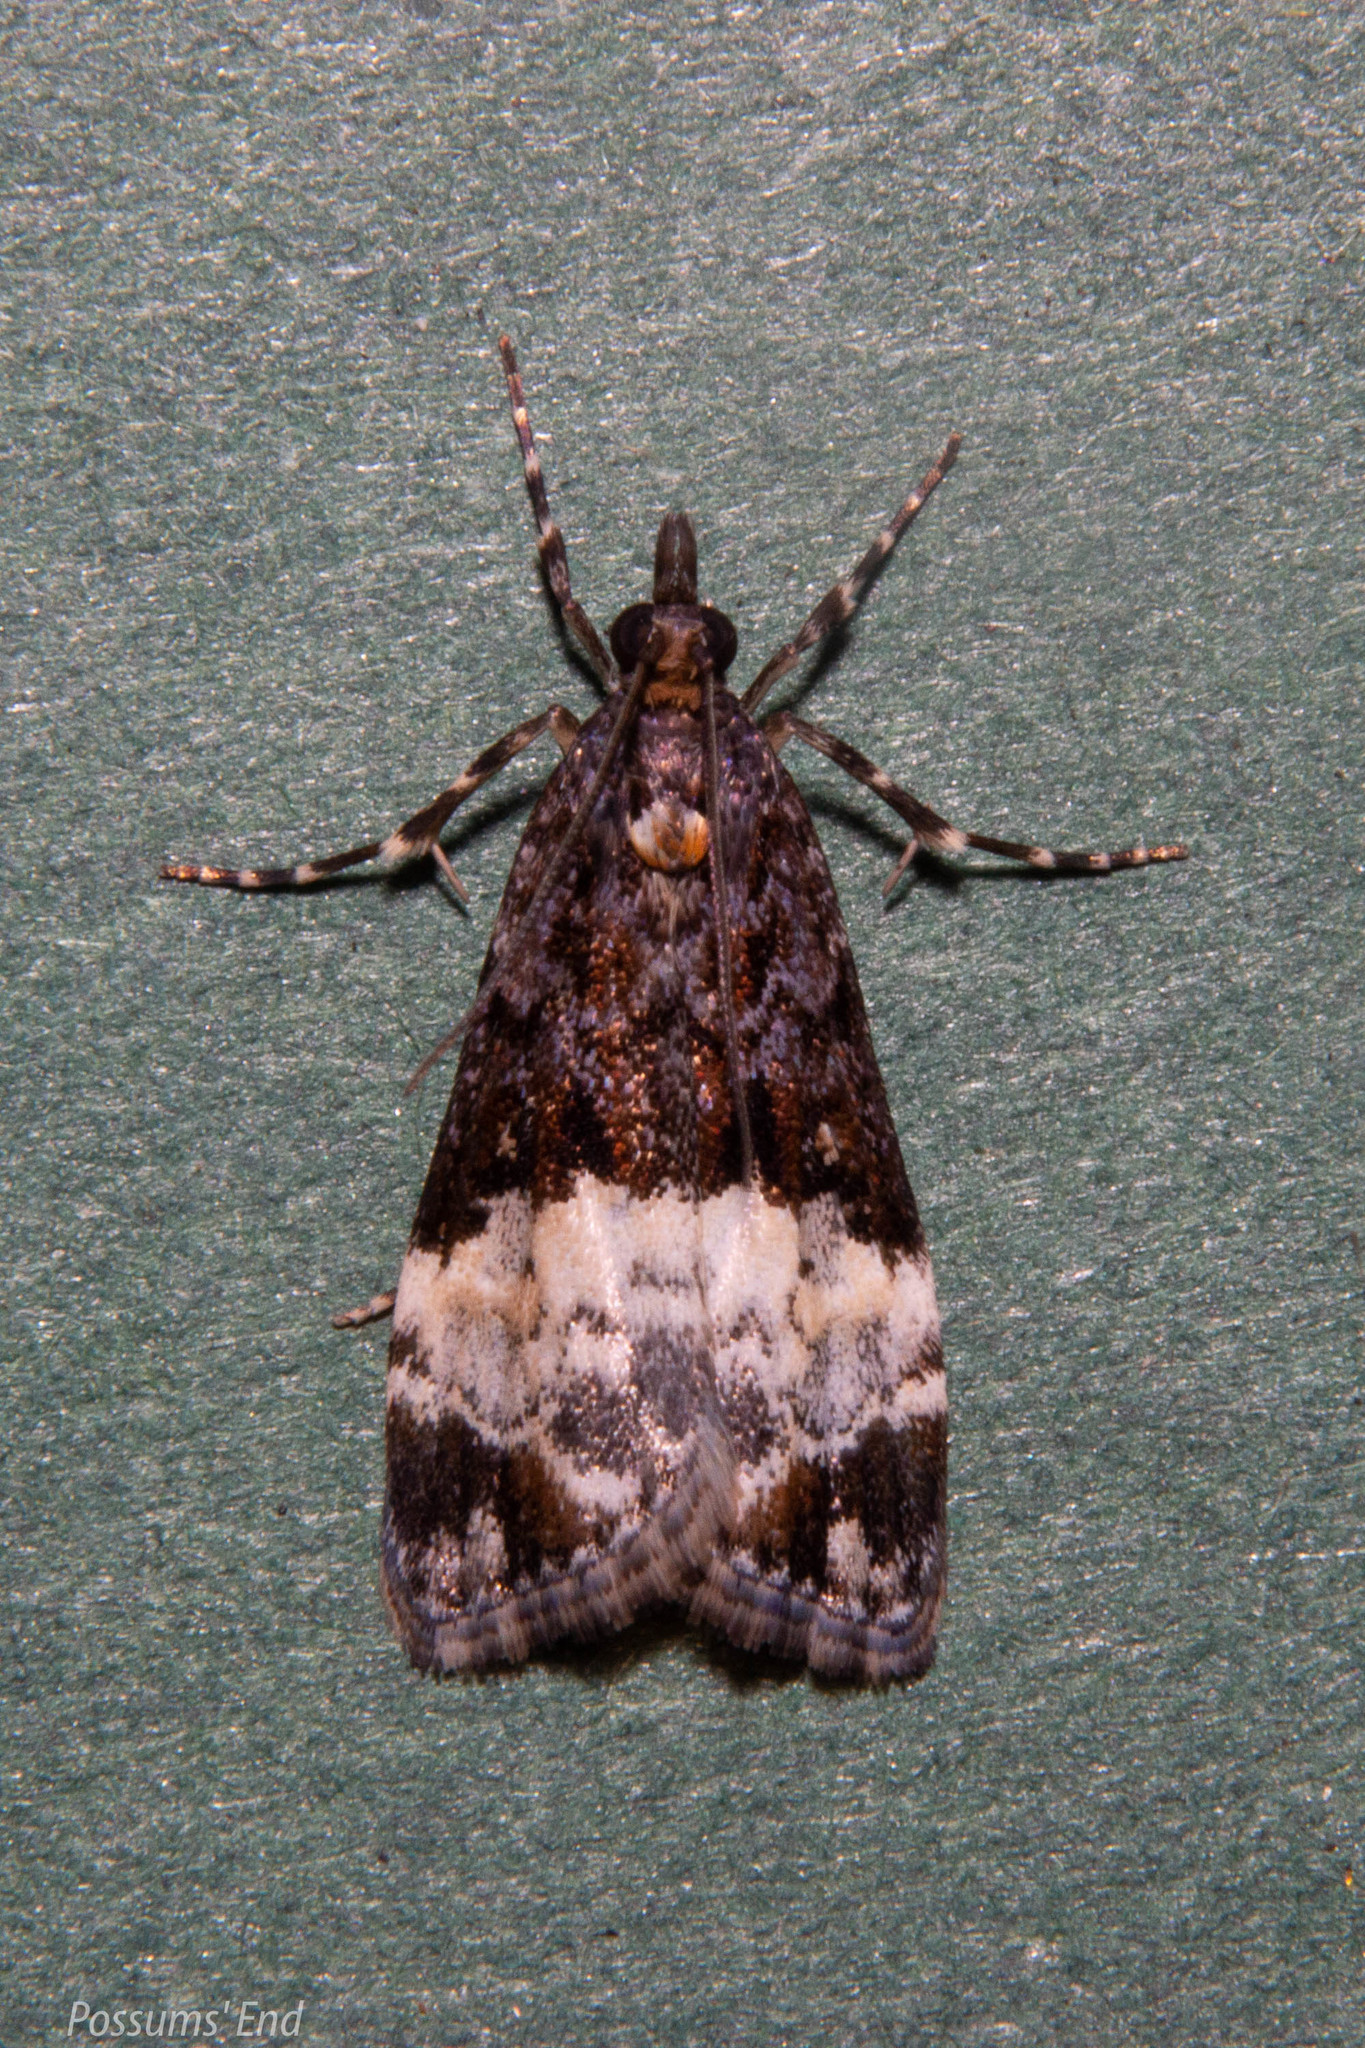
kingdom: Animalia
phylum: Arthropoda
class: Insecta
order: Lepidoptera
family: Crambidae
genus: Scoparia
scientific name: Scoparia minusculalis
